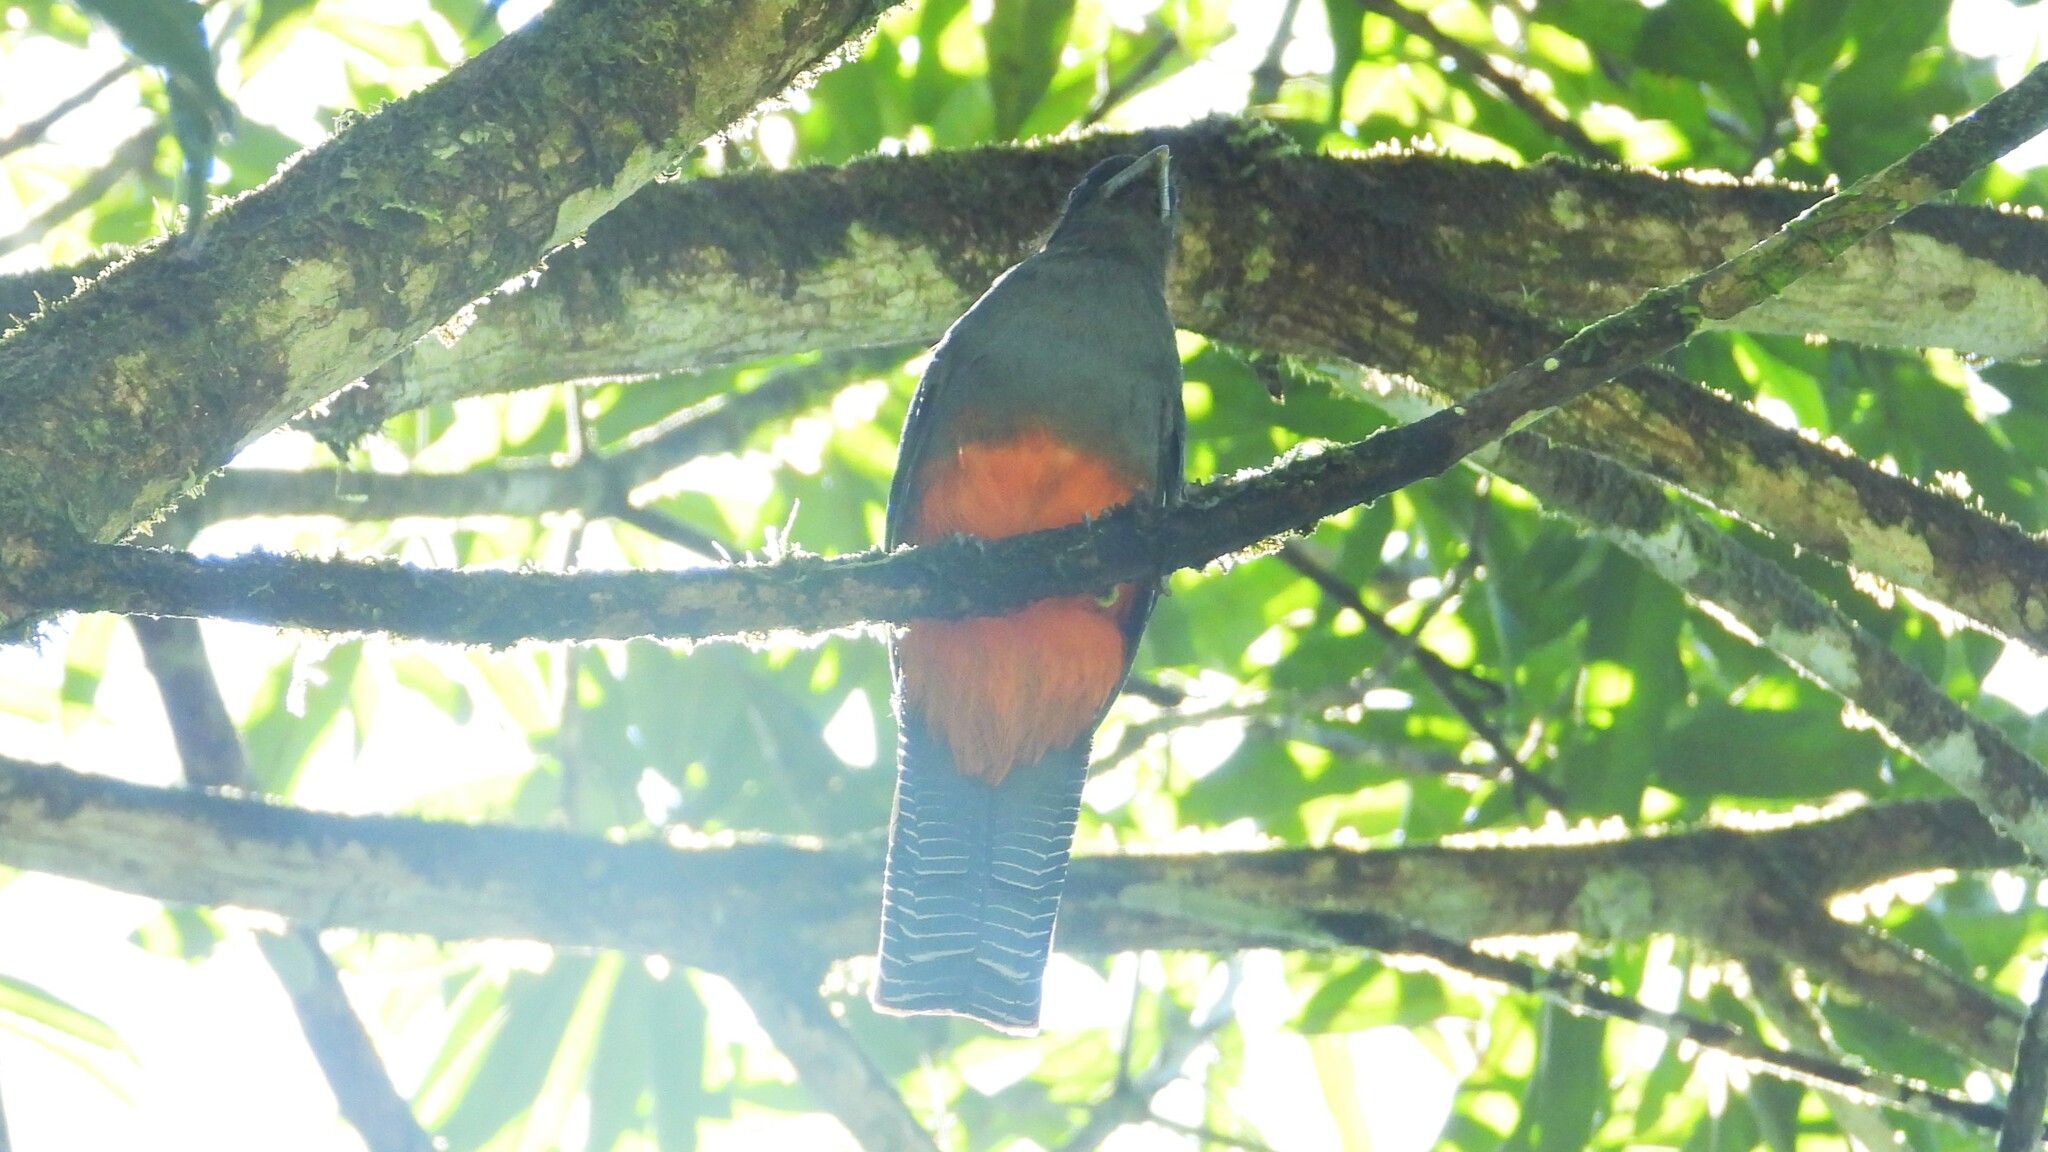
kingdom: Animalia
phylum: Chordata
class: Aves
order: Trogoniformes
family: Trogonidae
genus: Trogon
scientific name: Trogon bairdii
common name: Baird's trogon
